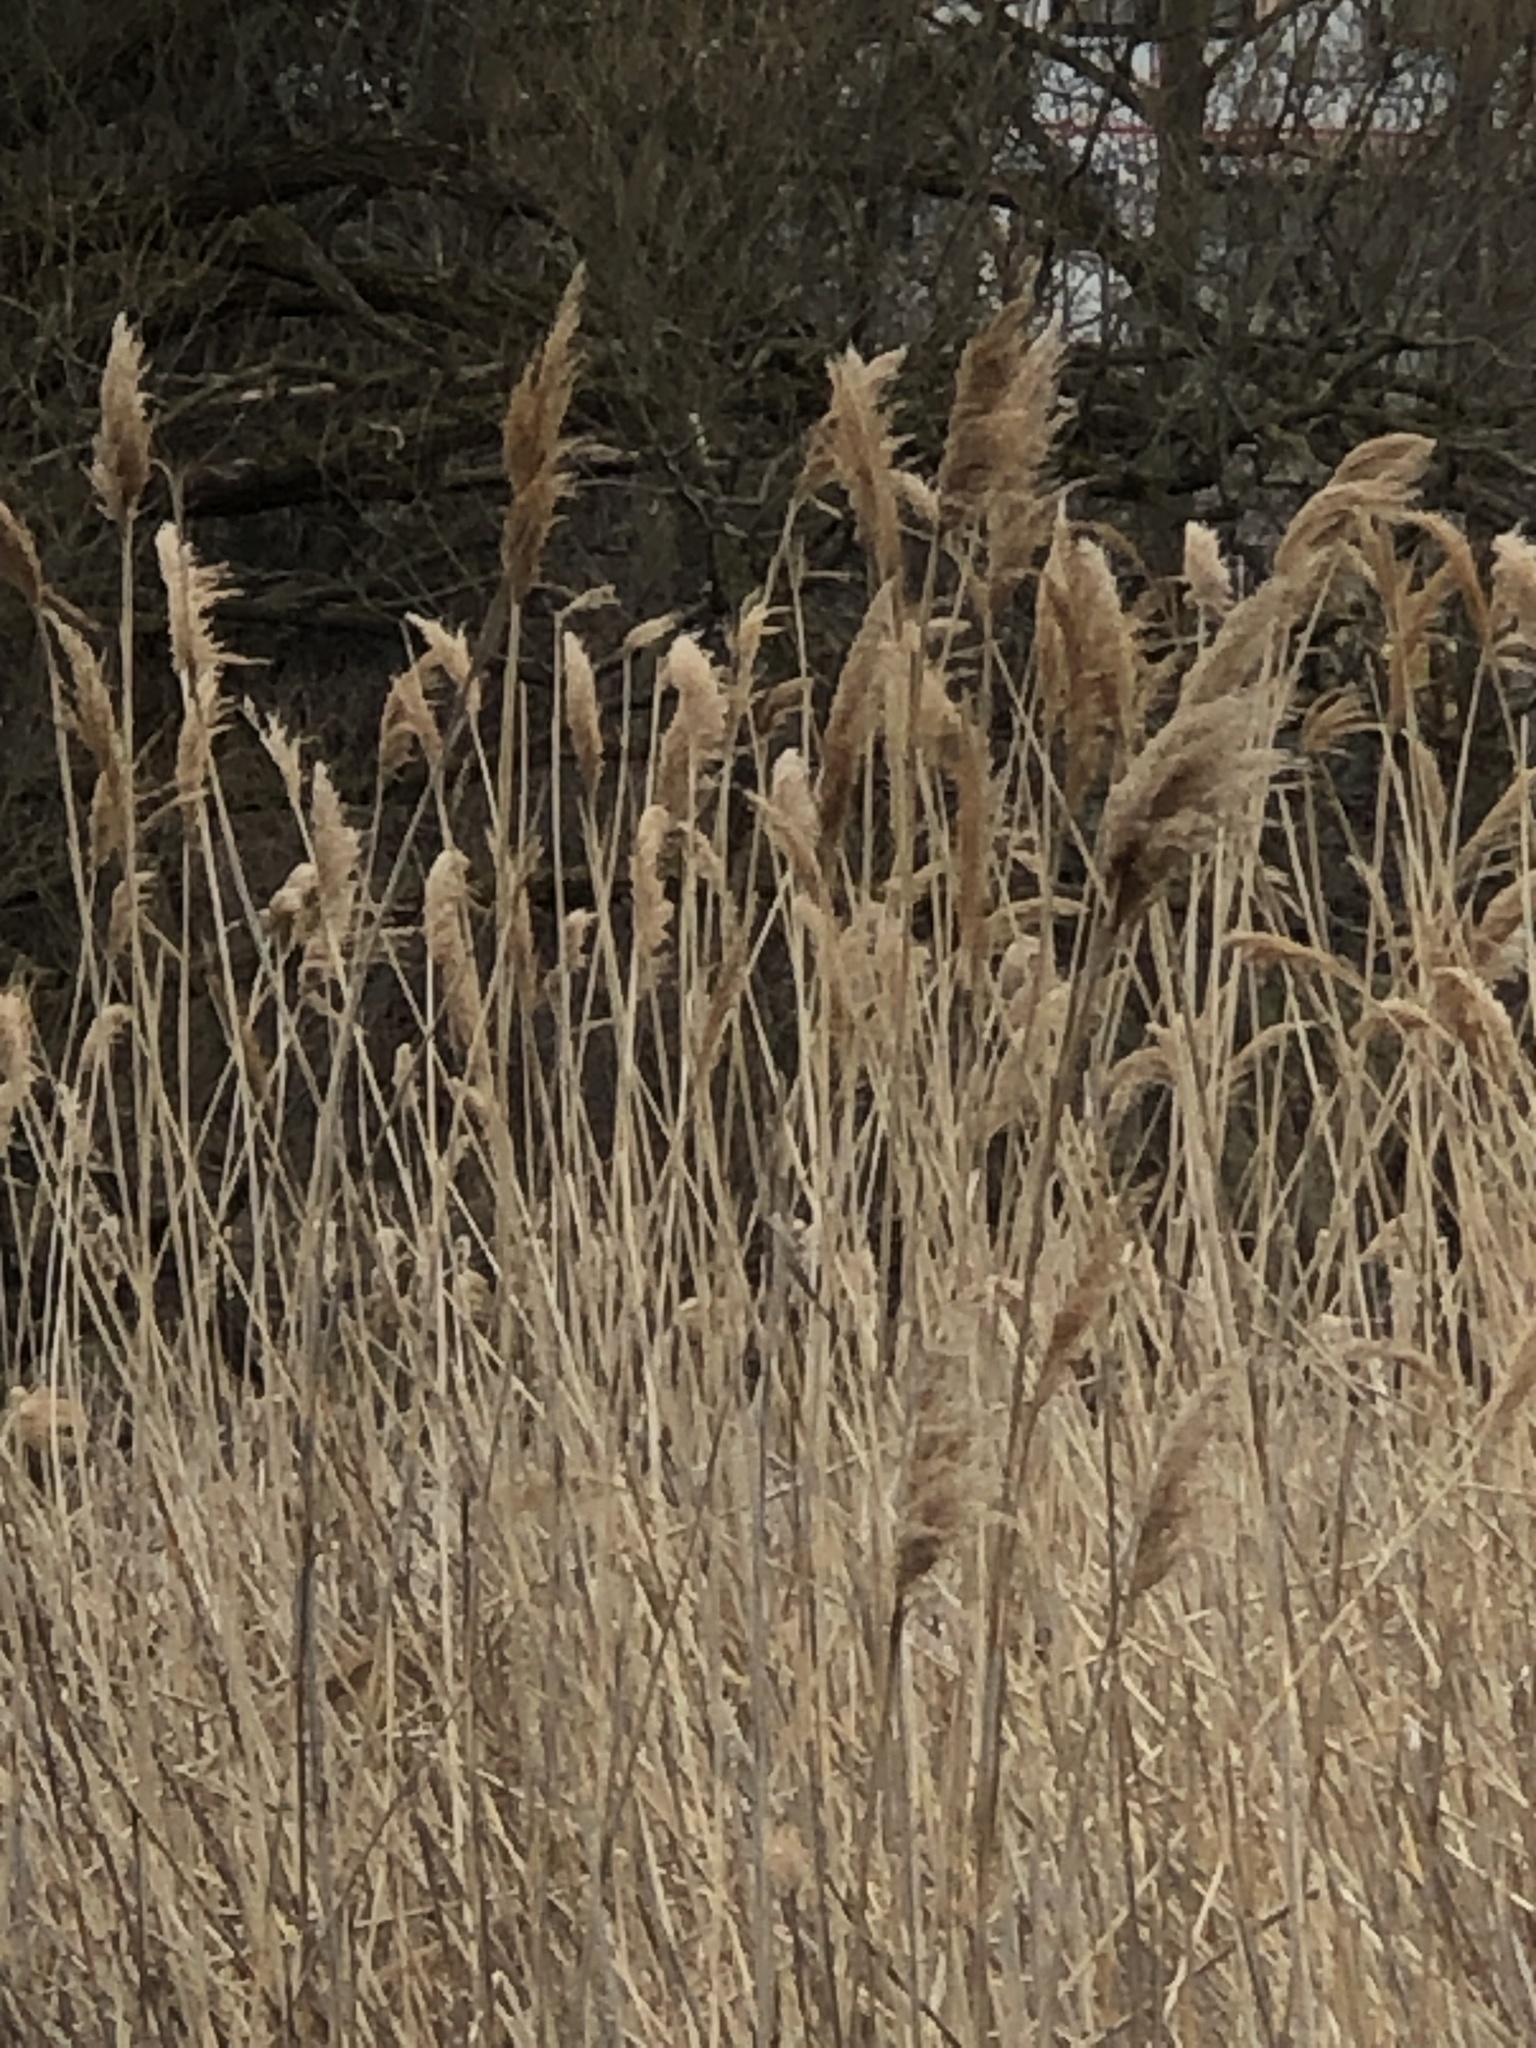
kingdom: Plantae
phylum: Tracheophyta
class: Liliopsida
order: Poales
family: Poaceae
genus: Phragmites
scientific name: Phragmites australis
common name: Common reed
